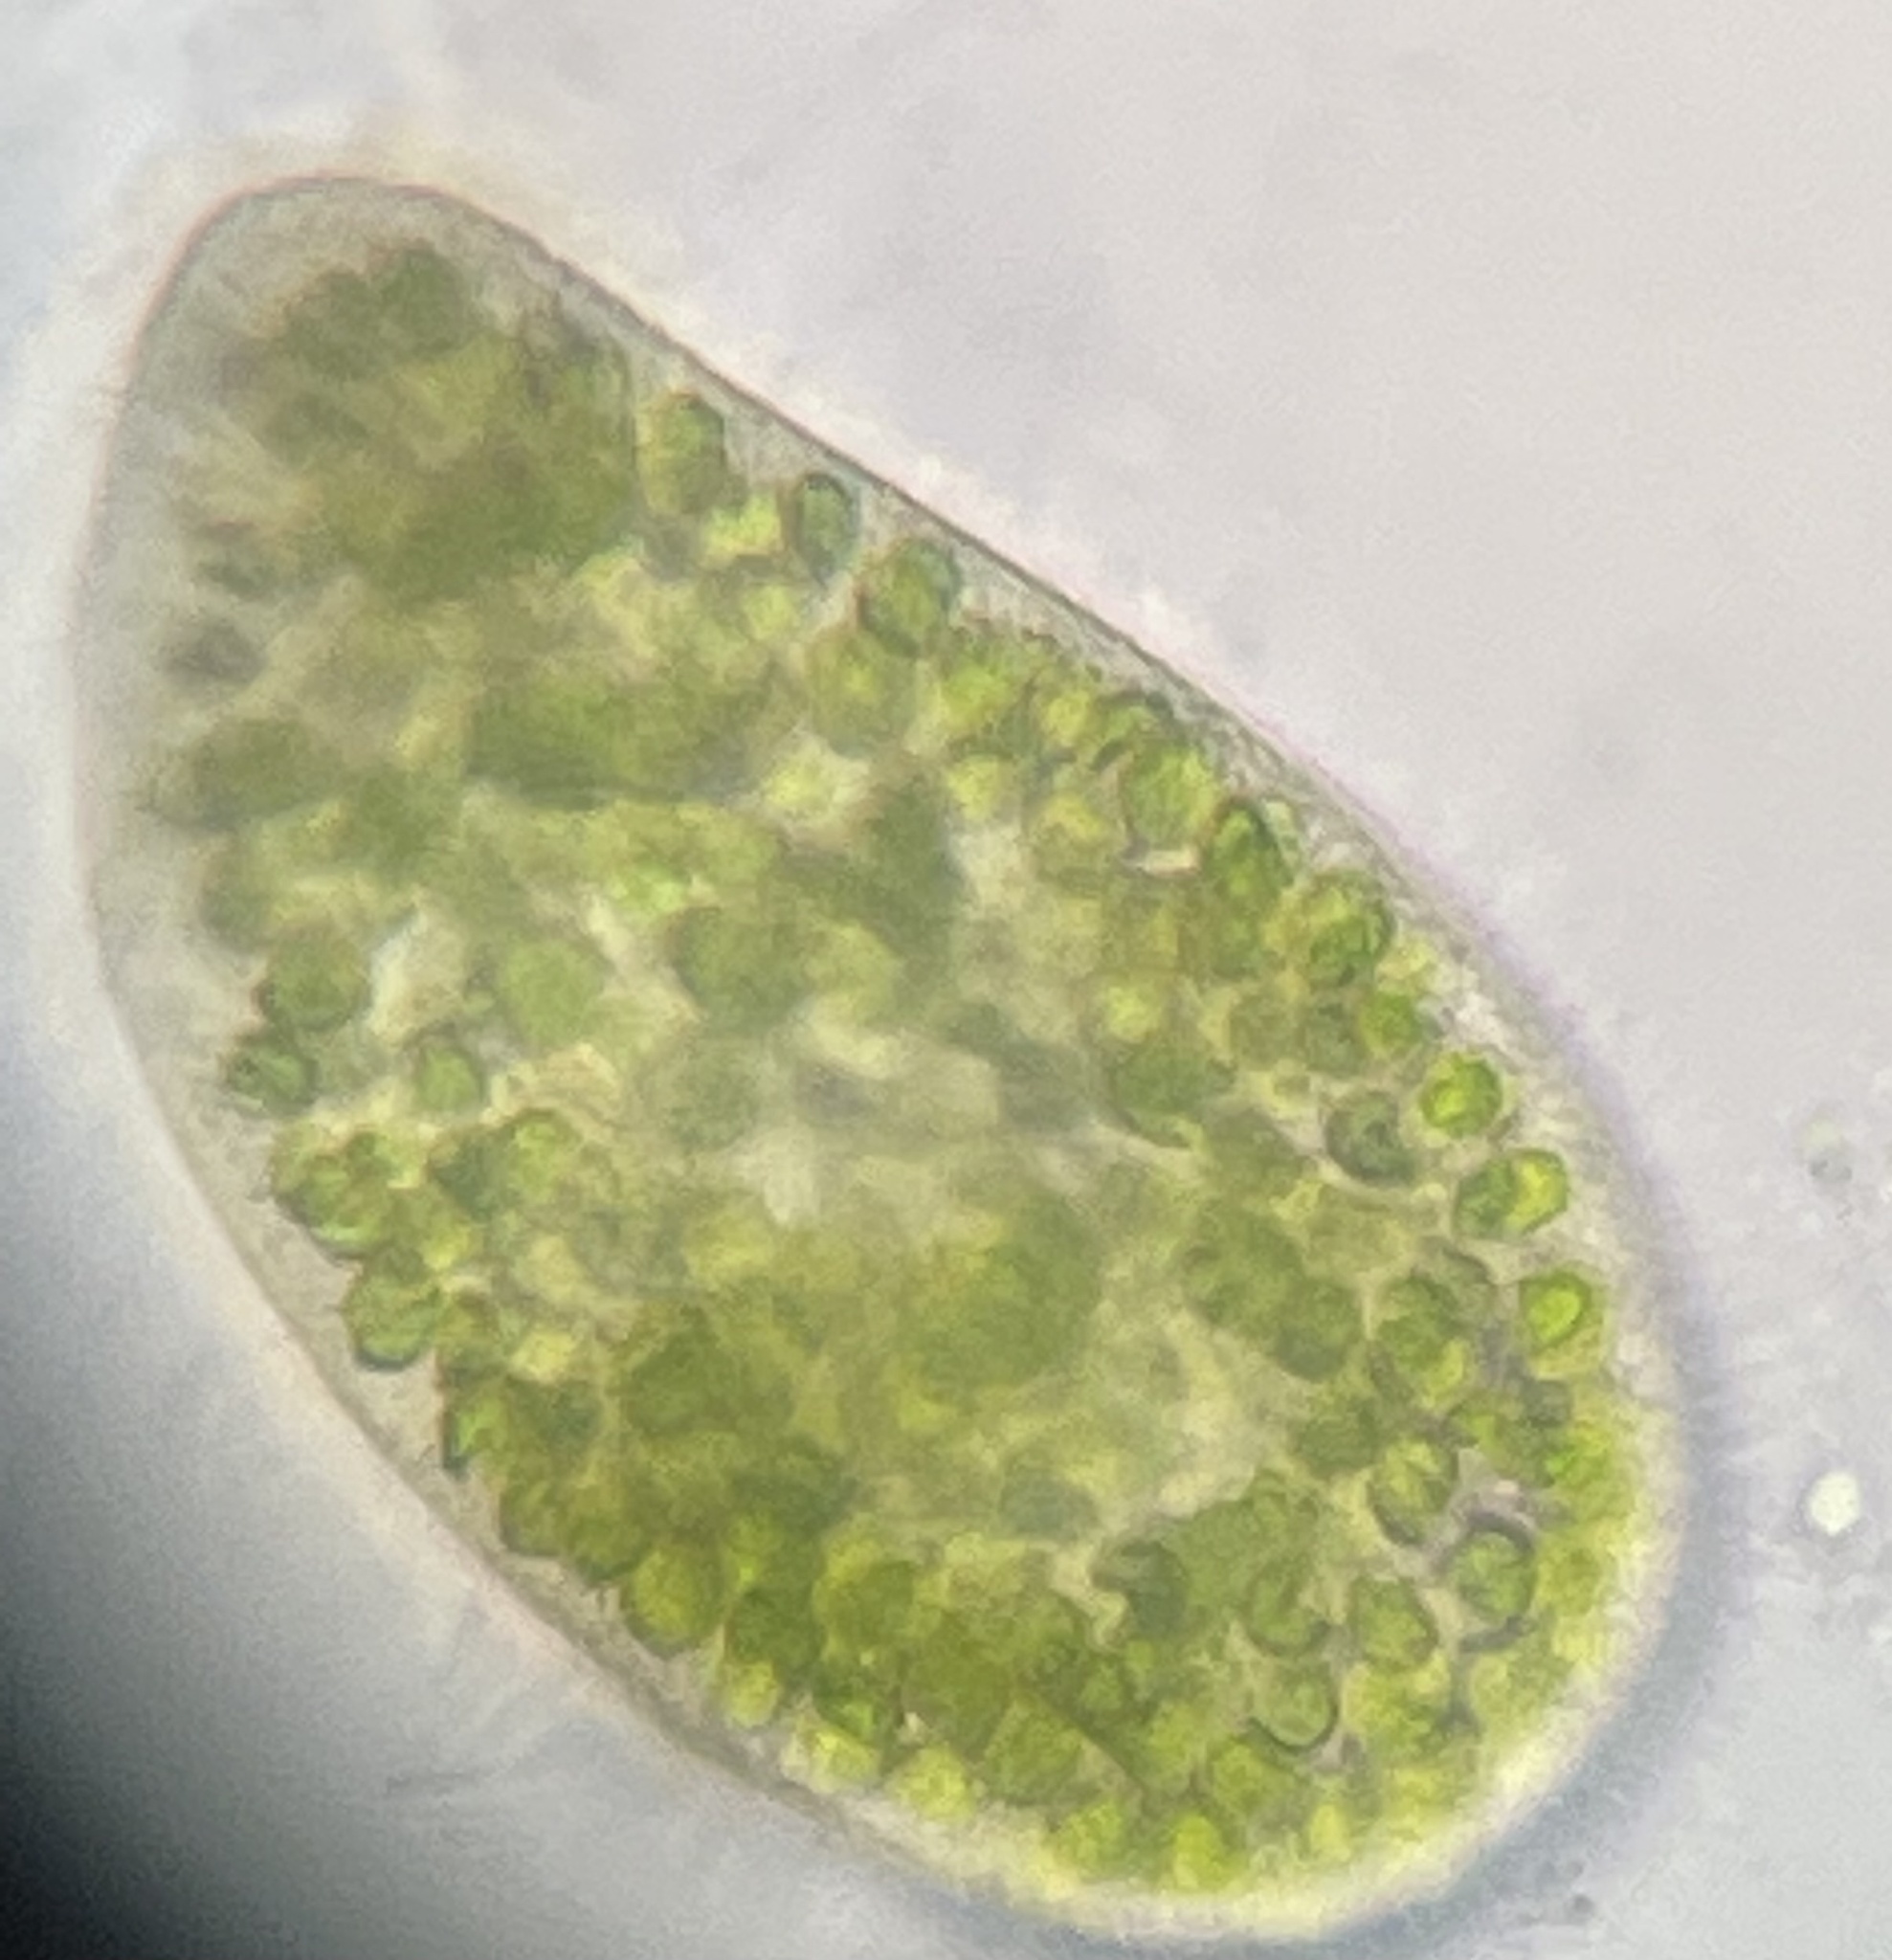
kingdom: Chromista
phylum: Ciliophora
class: Oligohymenophorea
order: Peniculida
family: Parameciidae
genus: Paramecium
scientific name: Paramecium
